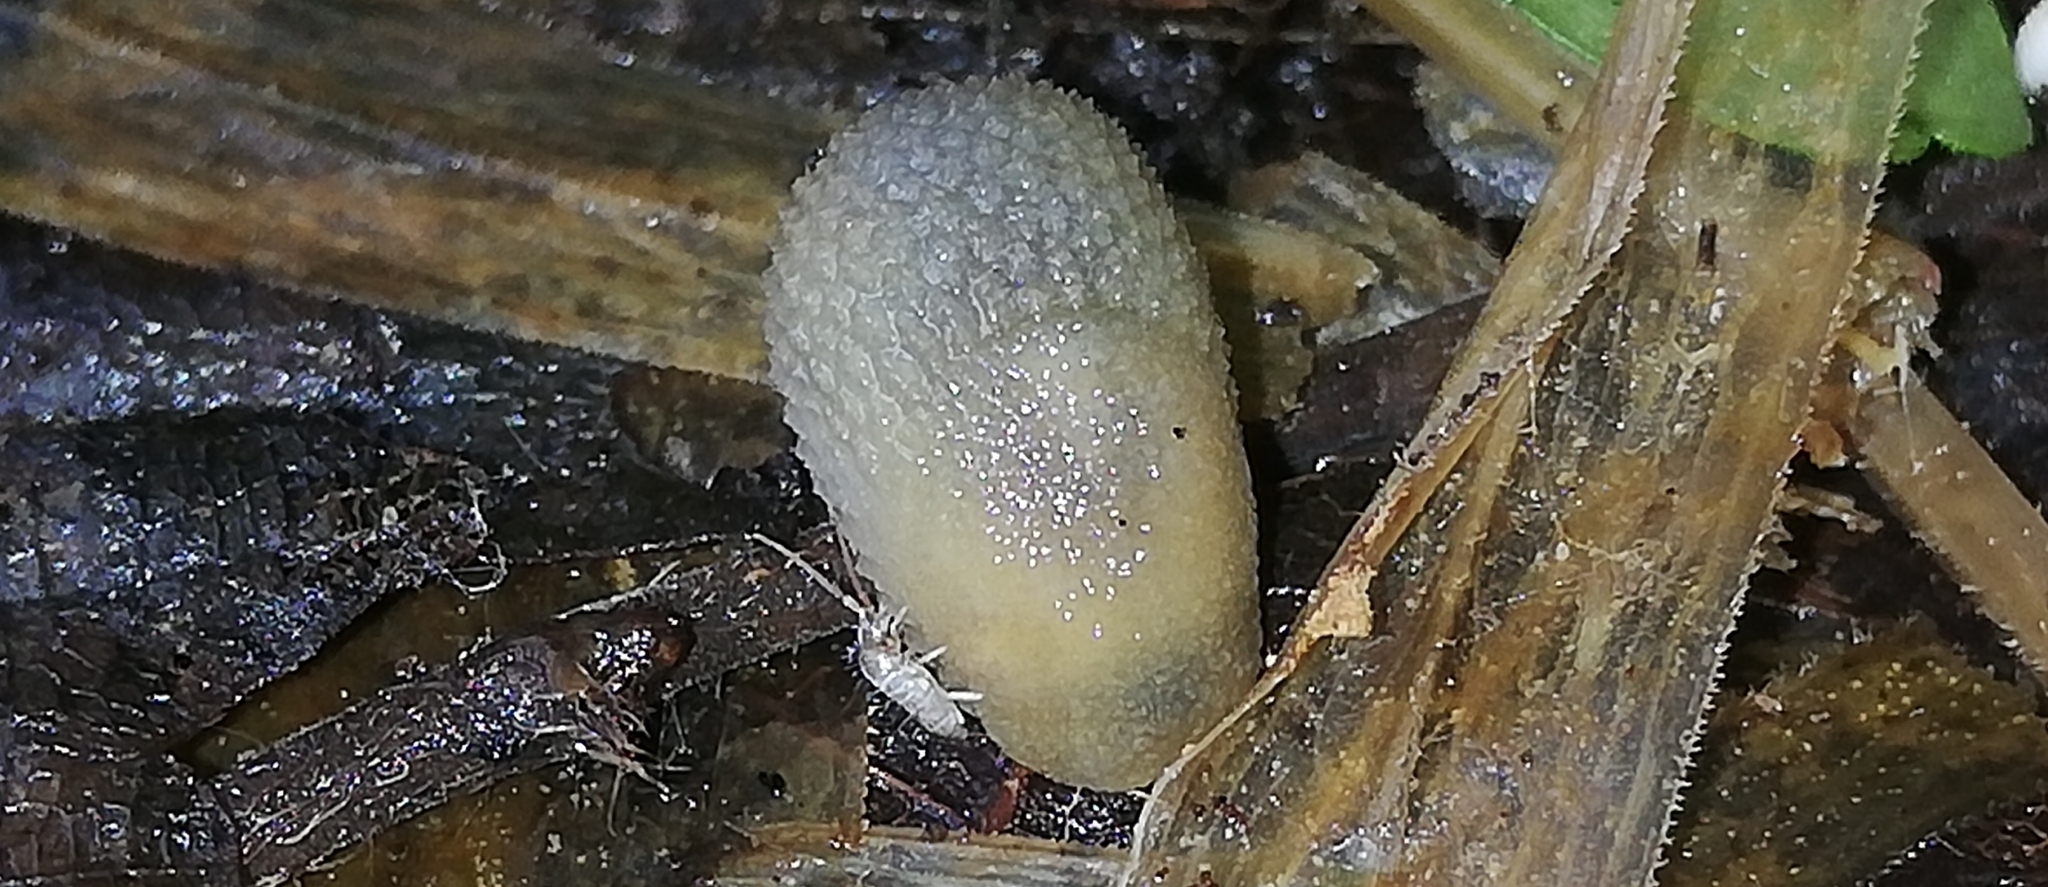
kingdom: Animalia
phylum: Mollusca
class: Gastropoda
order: Stylommatophora
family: Arionidae
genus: Arion
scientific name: Arion intermedius
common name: Hedgehog slug
